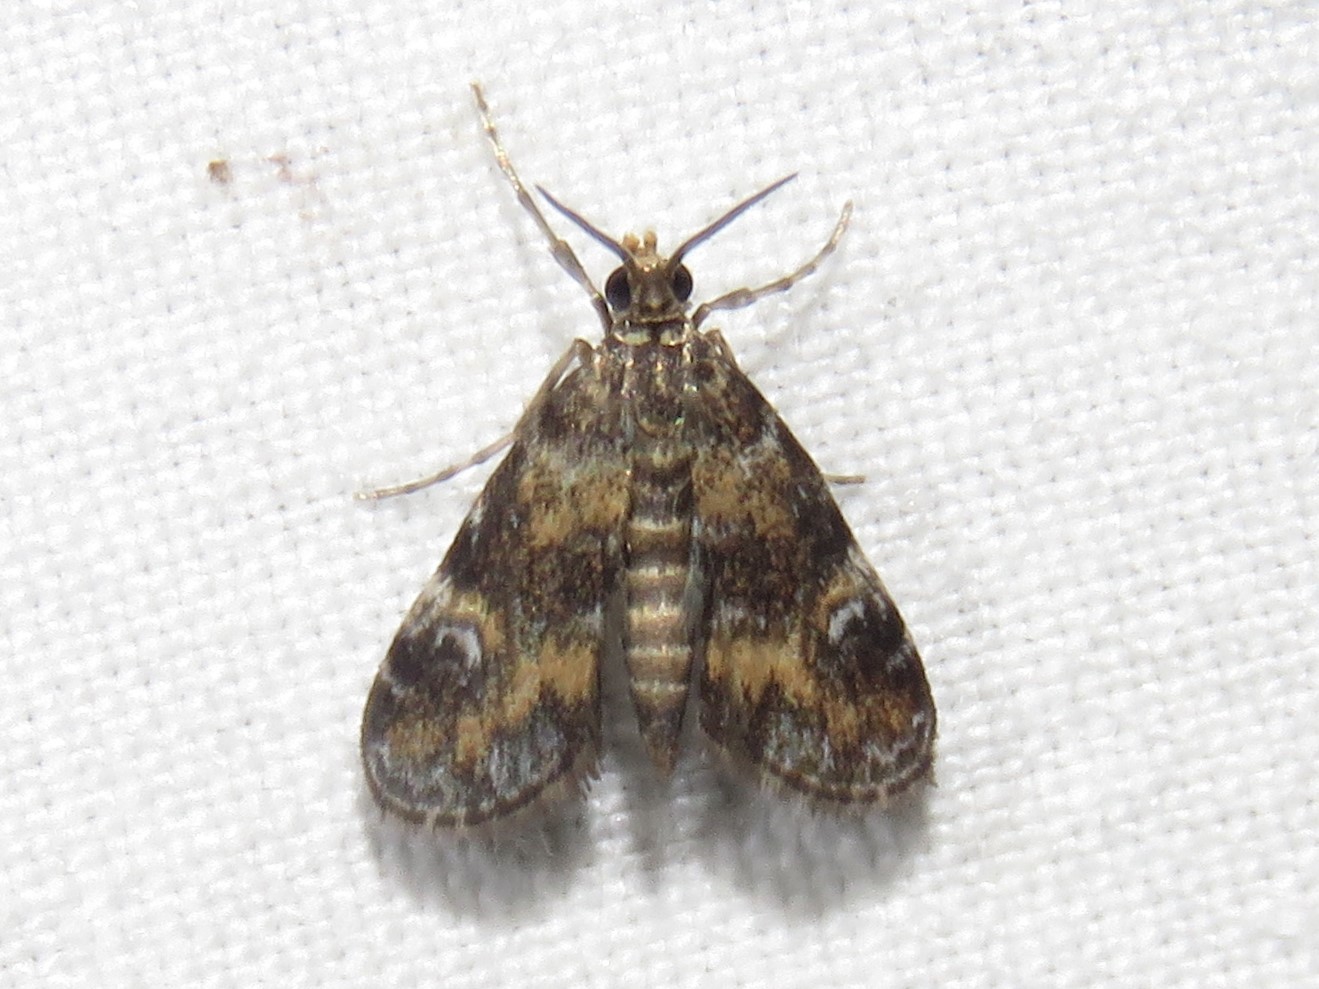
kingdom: Animalia
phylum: Arthropoda
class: Insecta
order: Lepidoptera
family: Crambidae
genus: Elophila
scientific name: Elophila obliteralis
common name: Waterlily leafcutter moth
